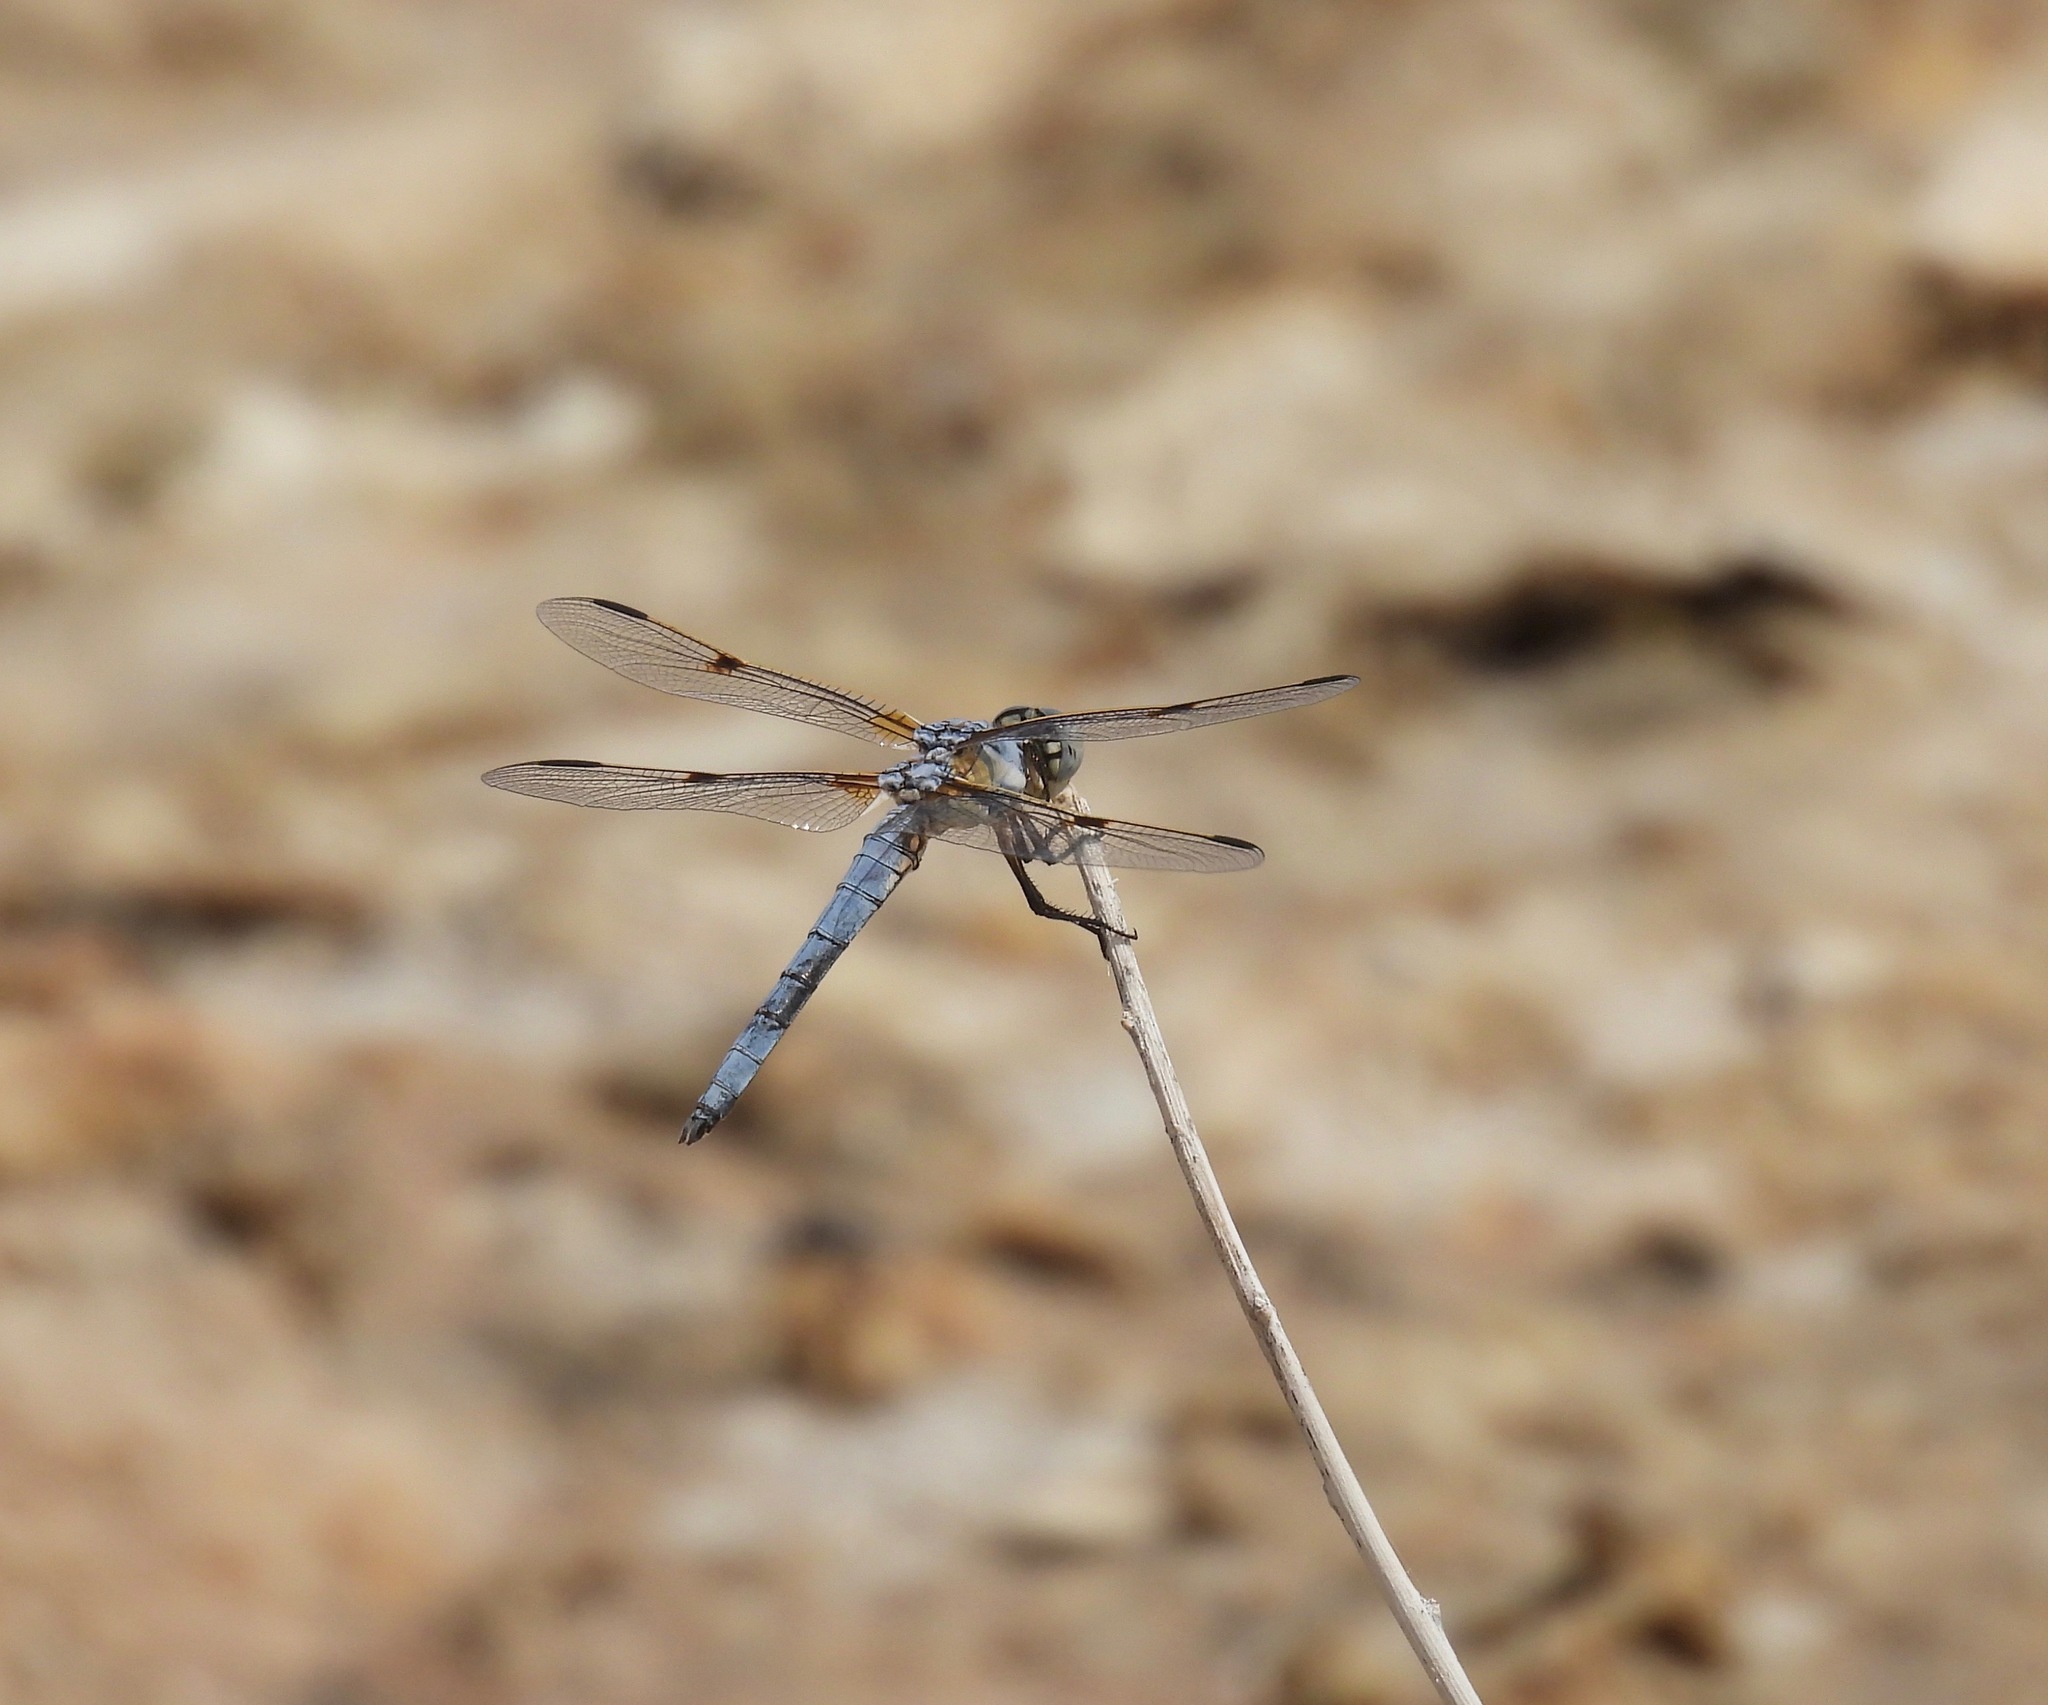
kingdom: Animalia
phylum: Arthropoda
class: Insecta
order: Odonata
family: Libellulidae
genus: Libellula
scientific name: Libellula composita
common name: Bleached skimmer
